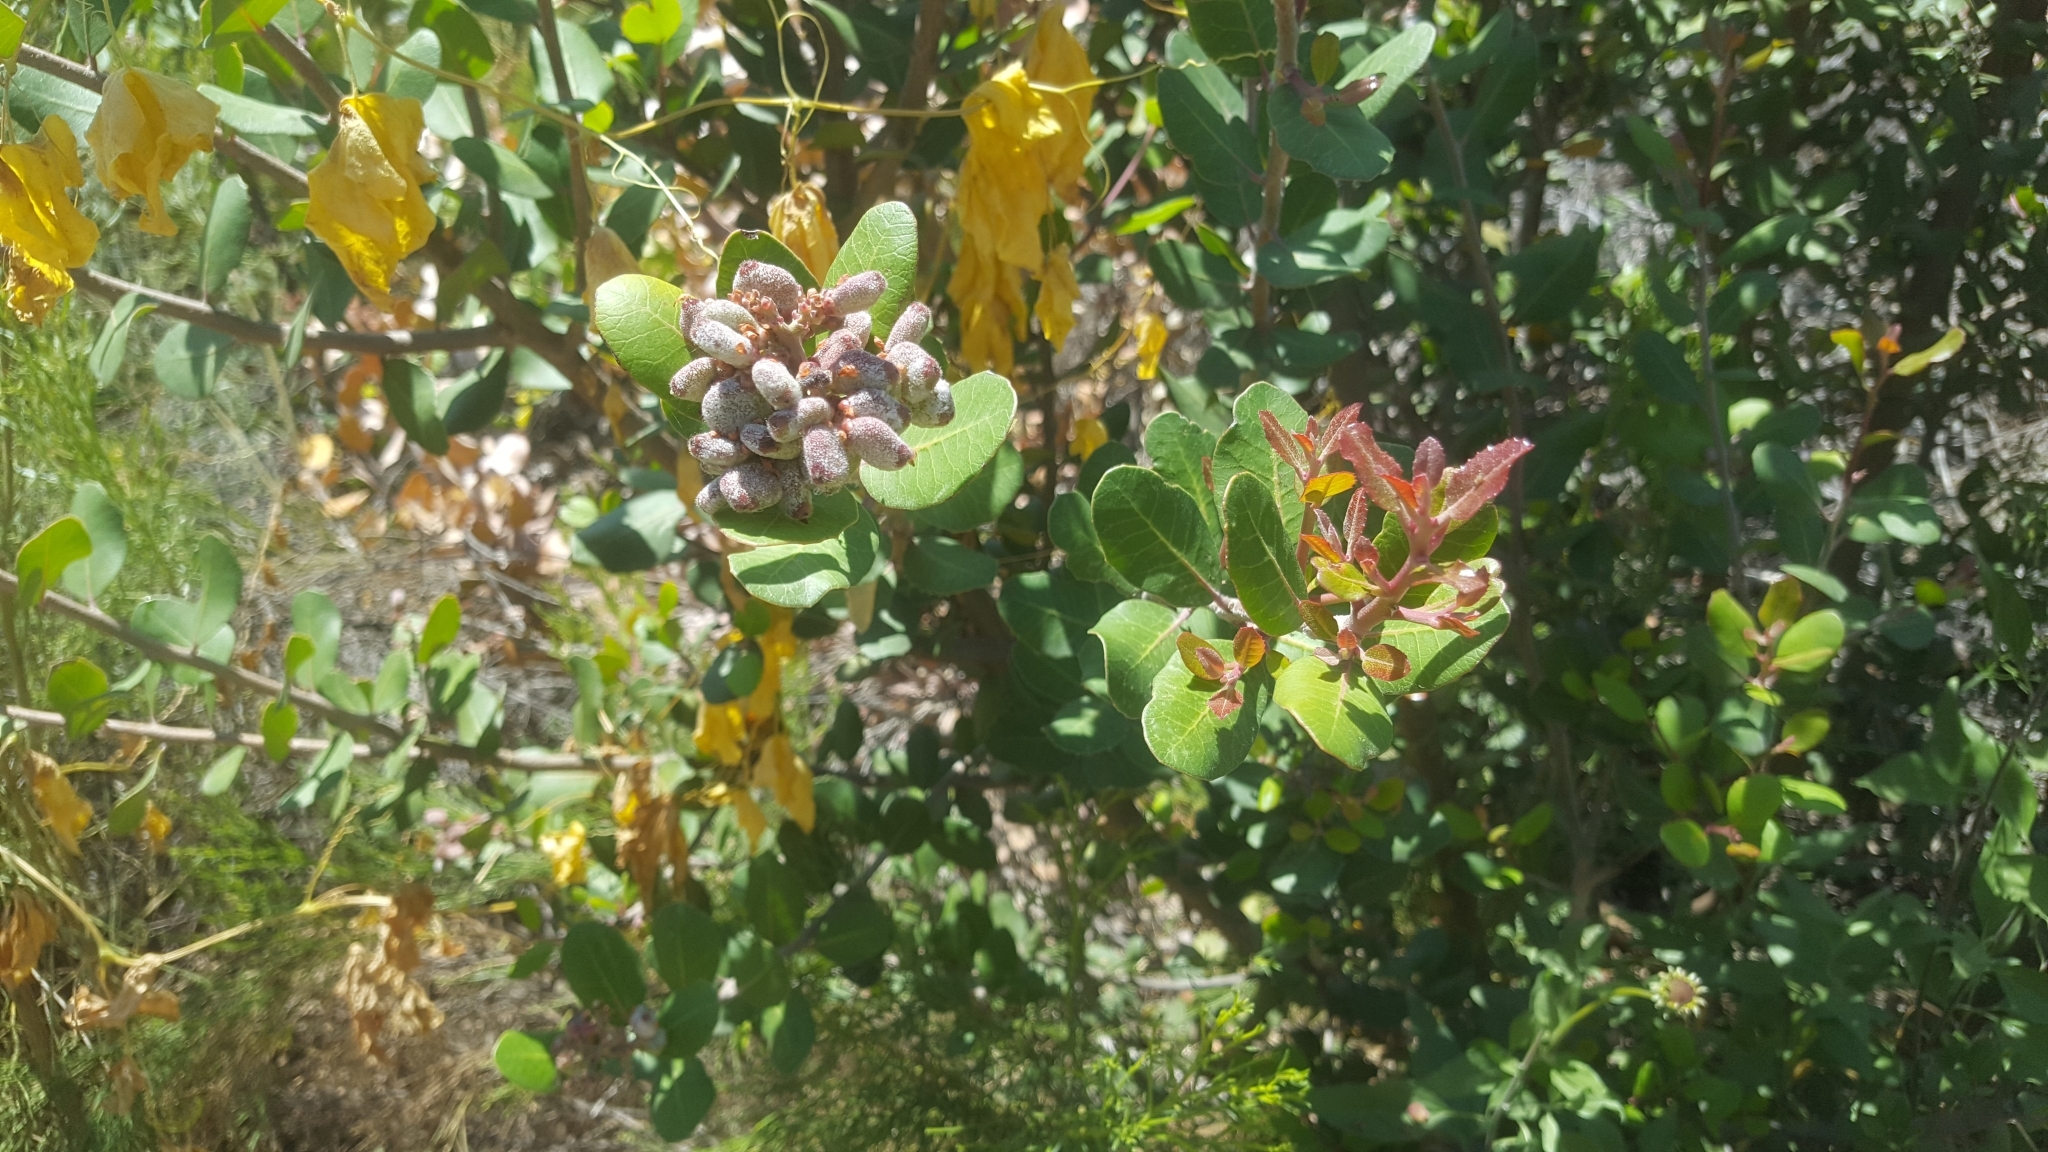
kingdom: Plantae
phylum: Tracheophyta
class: Magnoliopsida
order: Sapindales
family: Anacardiaceae
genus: Rhus
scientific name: Rhus integrifolia
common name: Lemonade sumac
